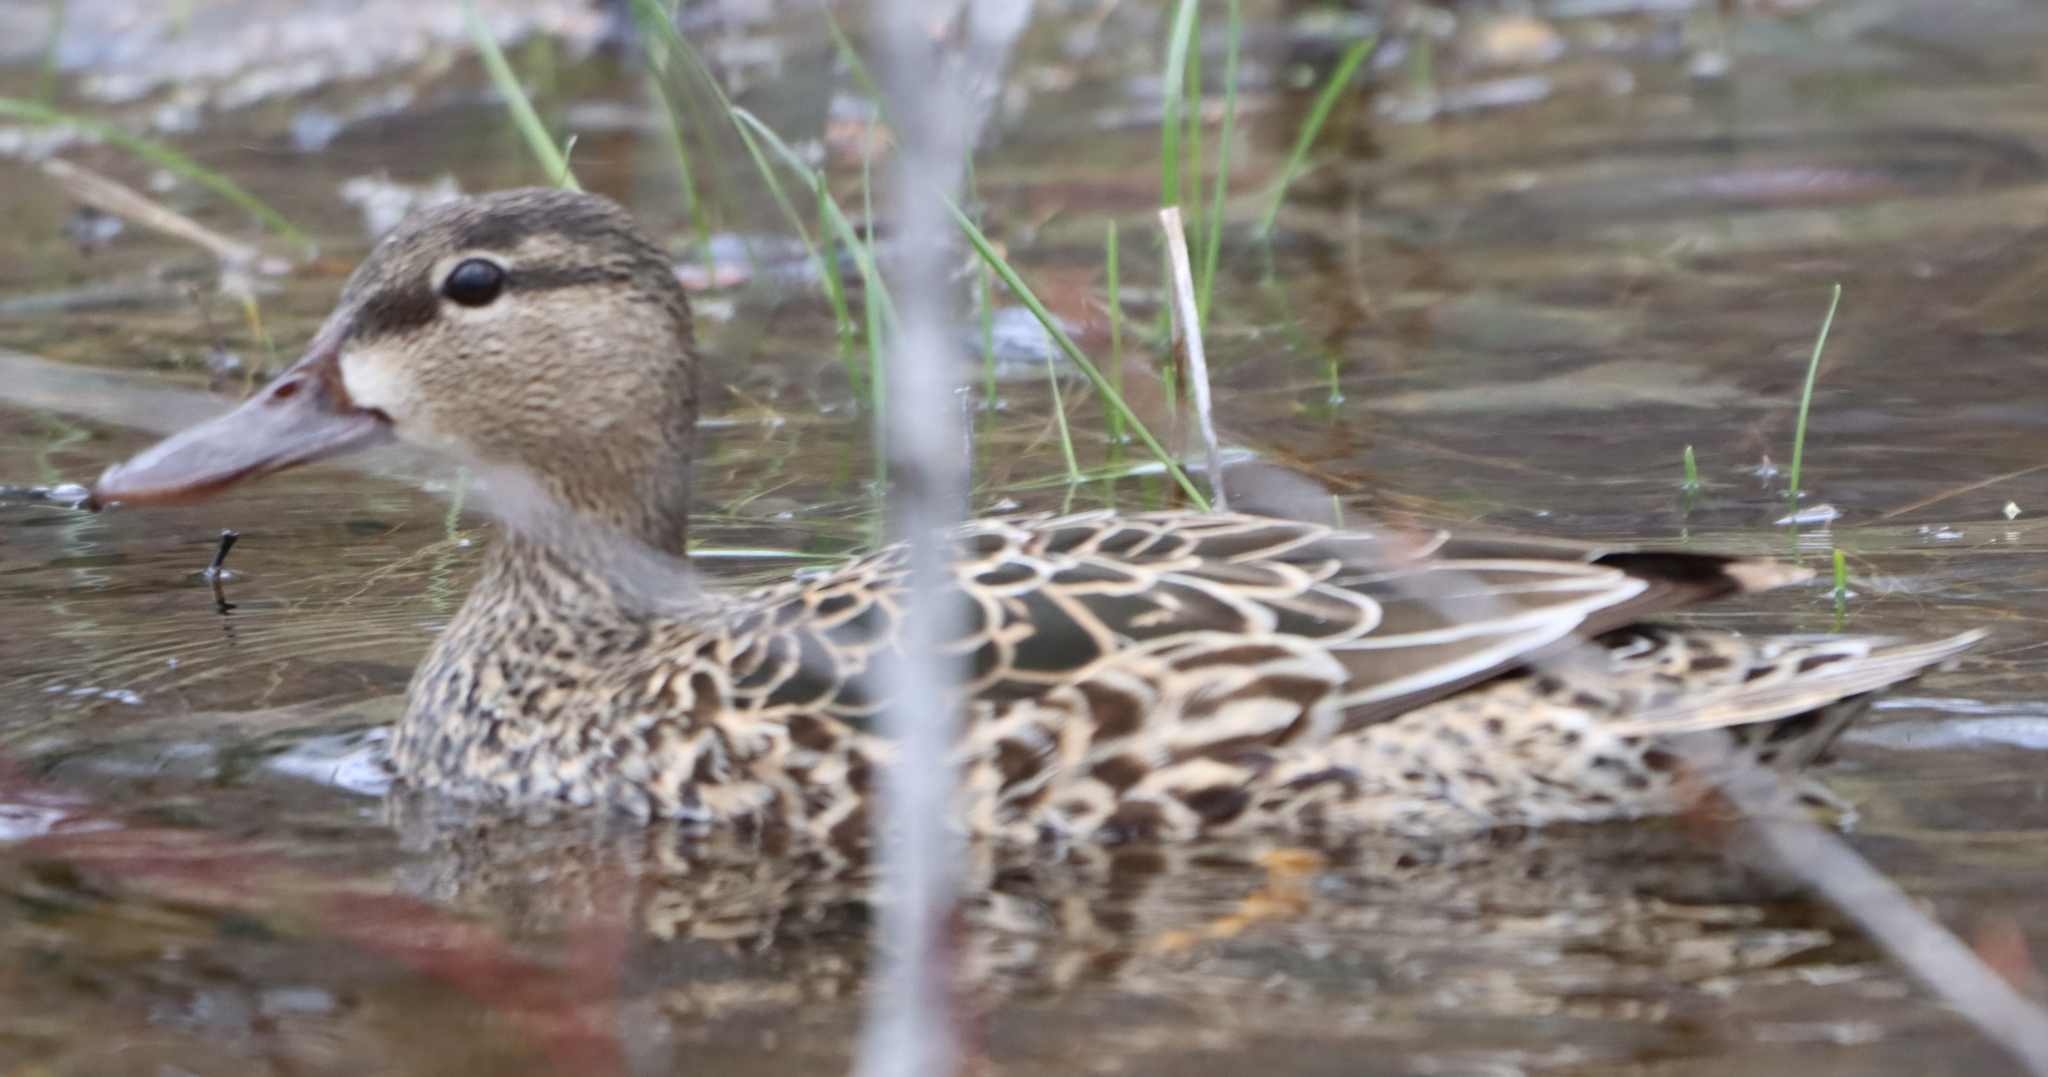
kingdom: Animalia
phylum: Chordata
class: Aves
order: Anseriformes
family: Anatidae
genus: Spatula
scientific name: Spatula discors
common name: Blue-winged teal
